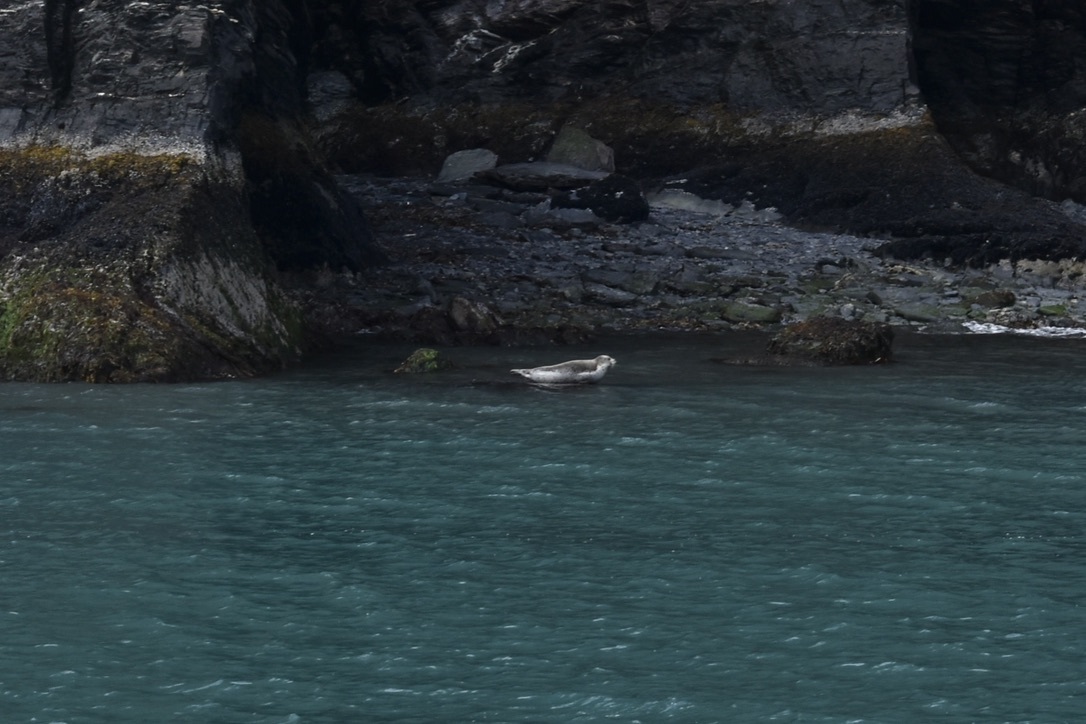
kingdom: Animalia
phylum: Chordata
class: Mammalia
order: Carnivora
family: Phocidae
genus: Phoca
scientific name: Phoca vitulina
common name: Harbor seal
